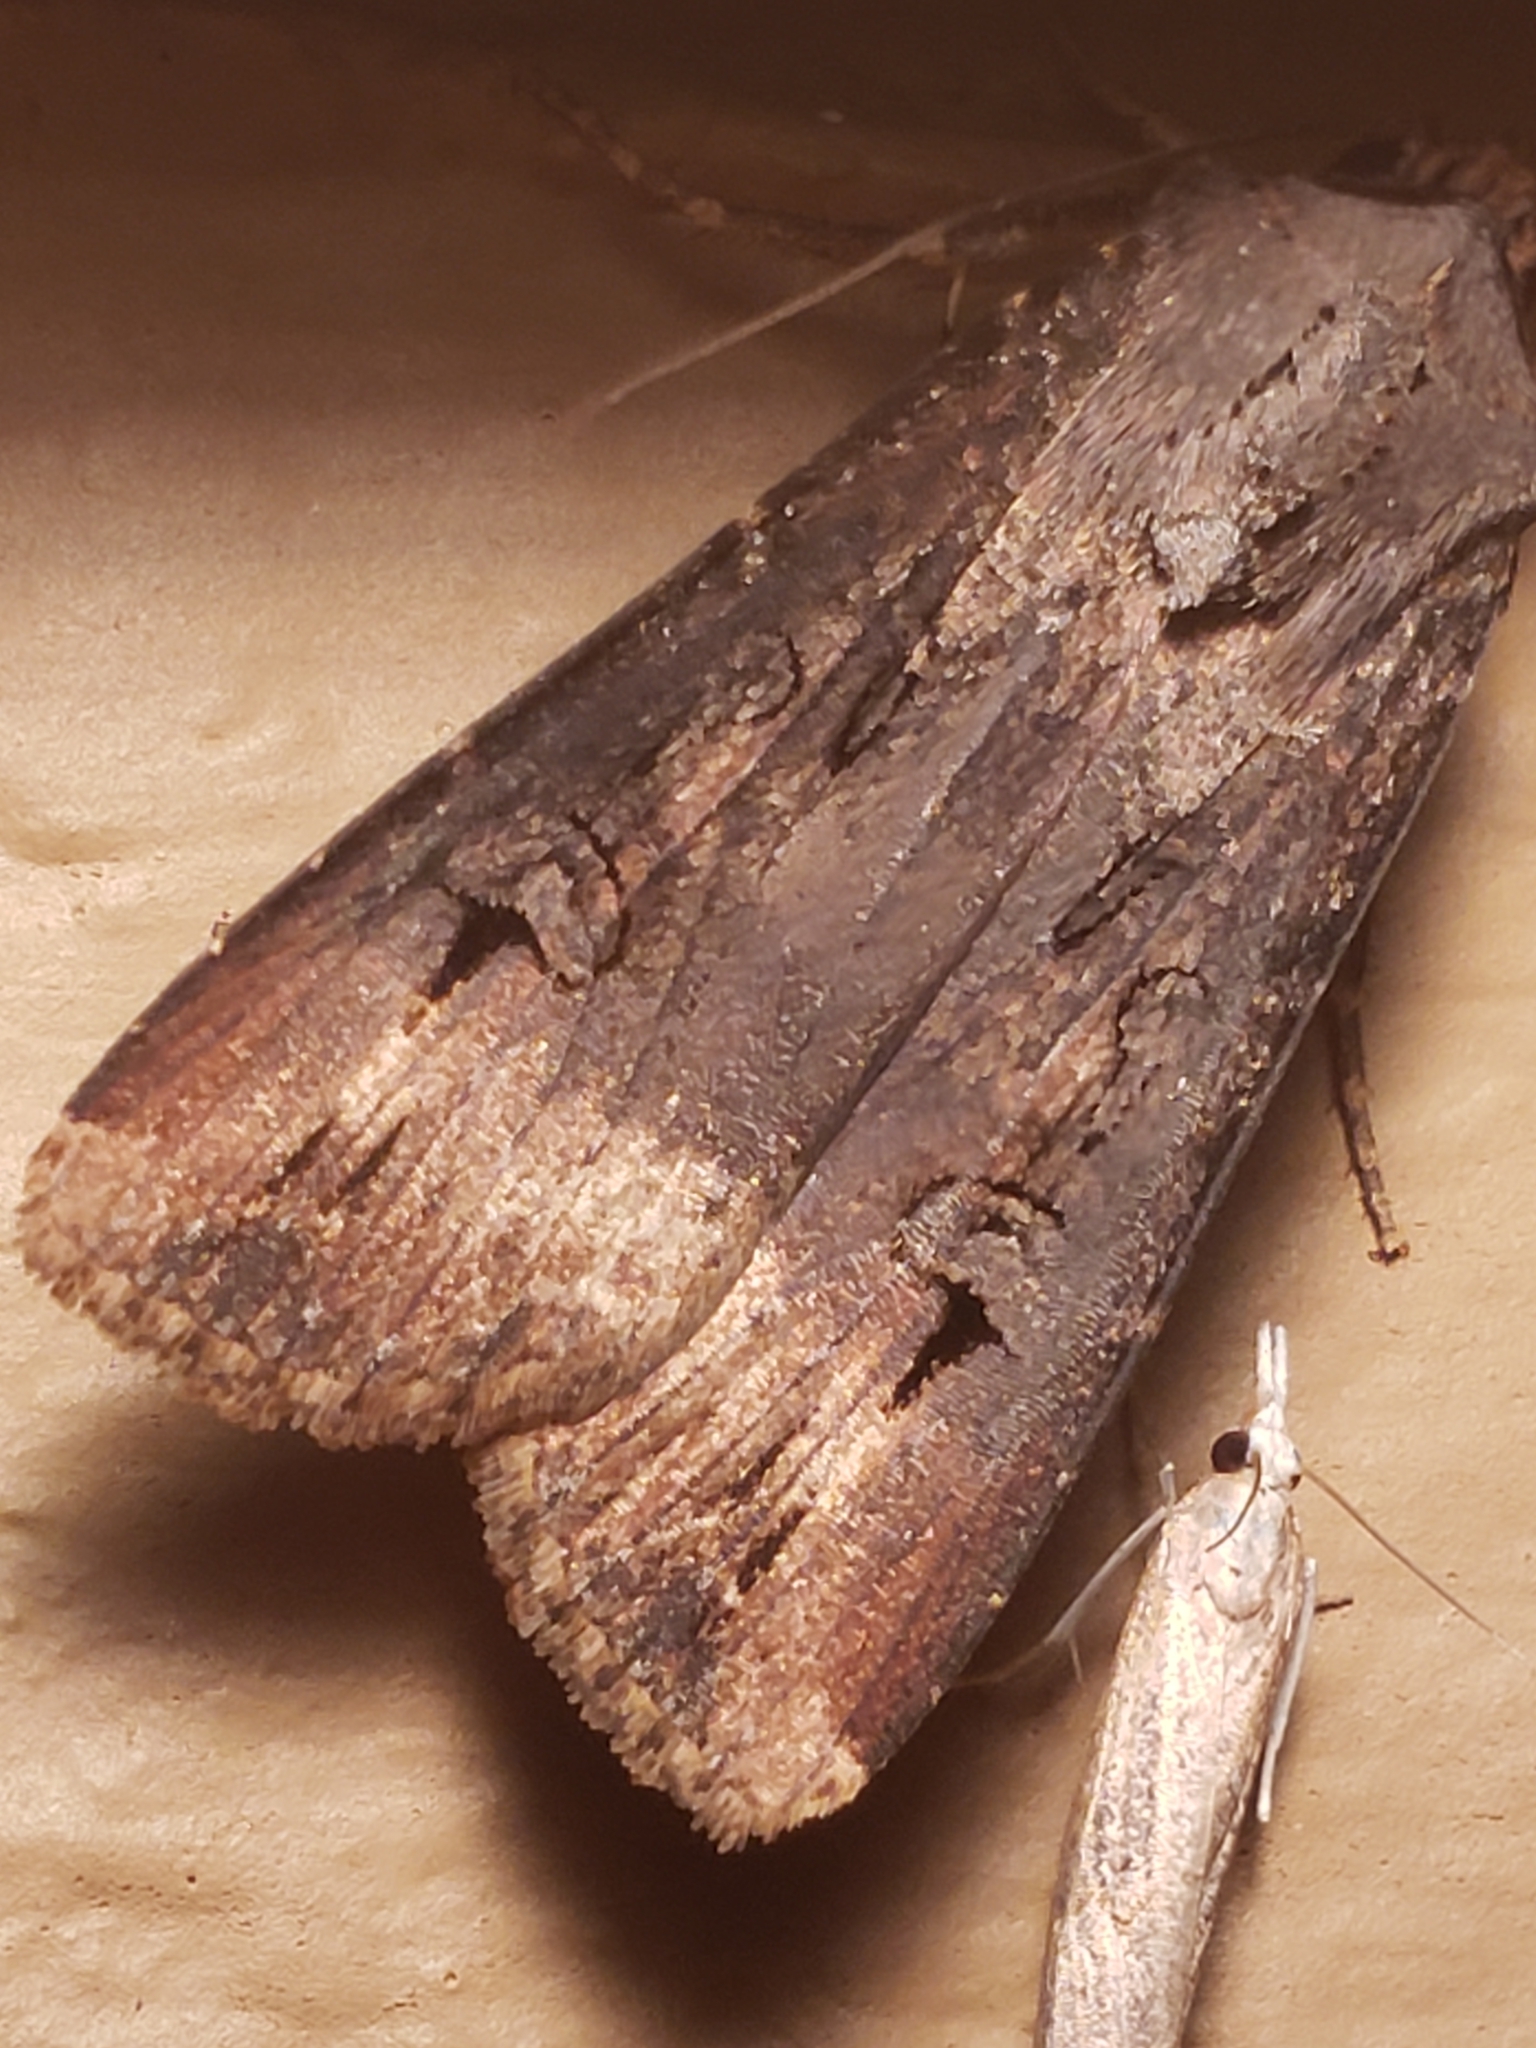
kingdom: Animalia
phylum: Arthropoda
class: Insecta
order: Lepidoptera
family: Noctuidae
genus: Agrotis
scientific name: Agrotis ipsilon
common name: Dark sword-grass
